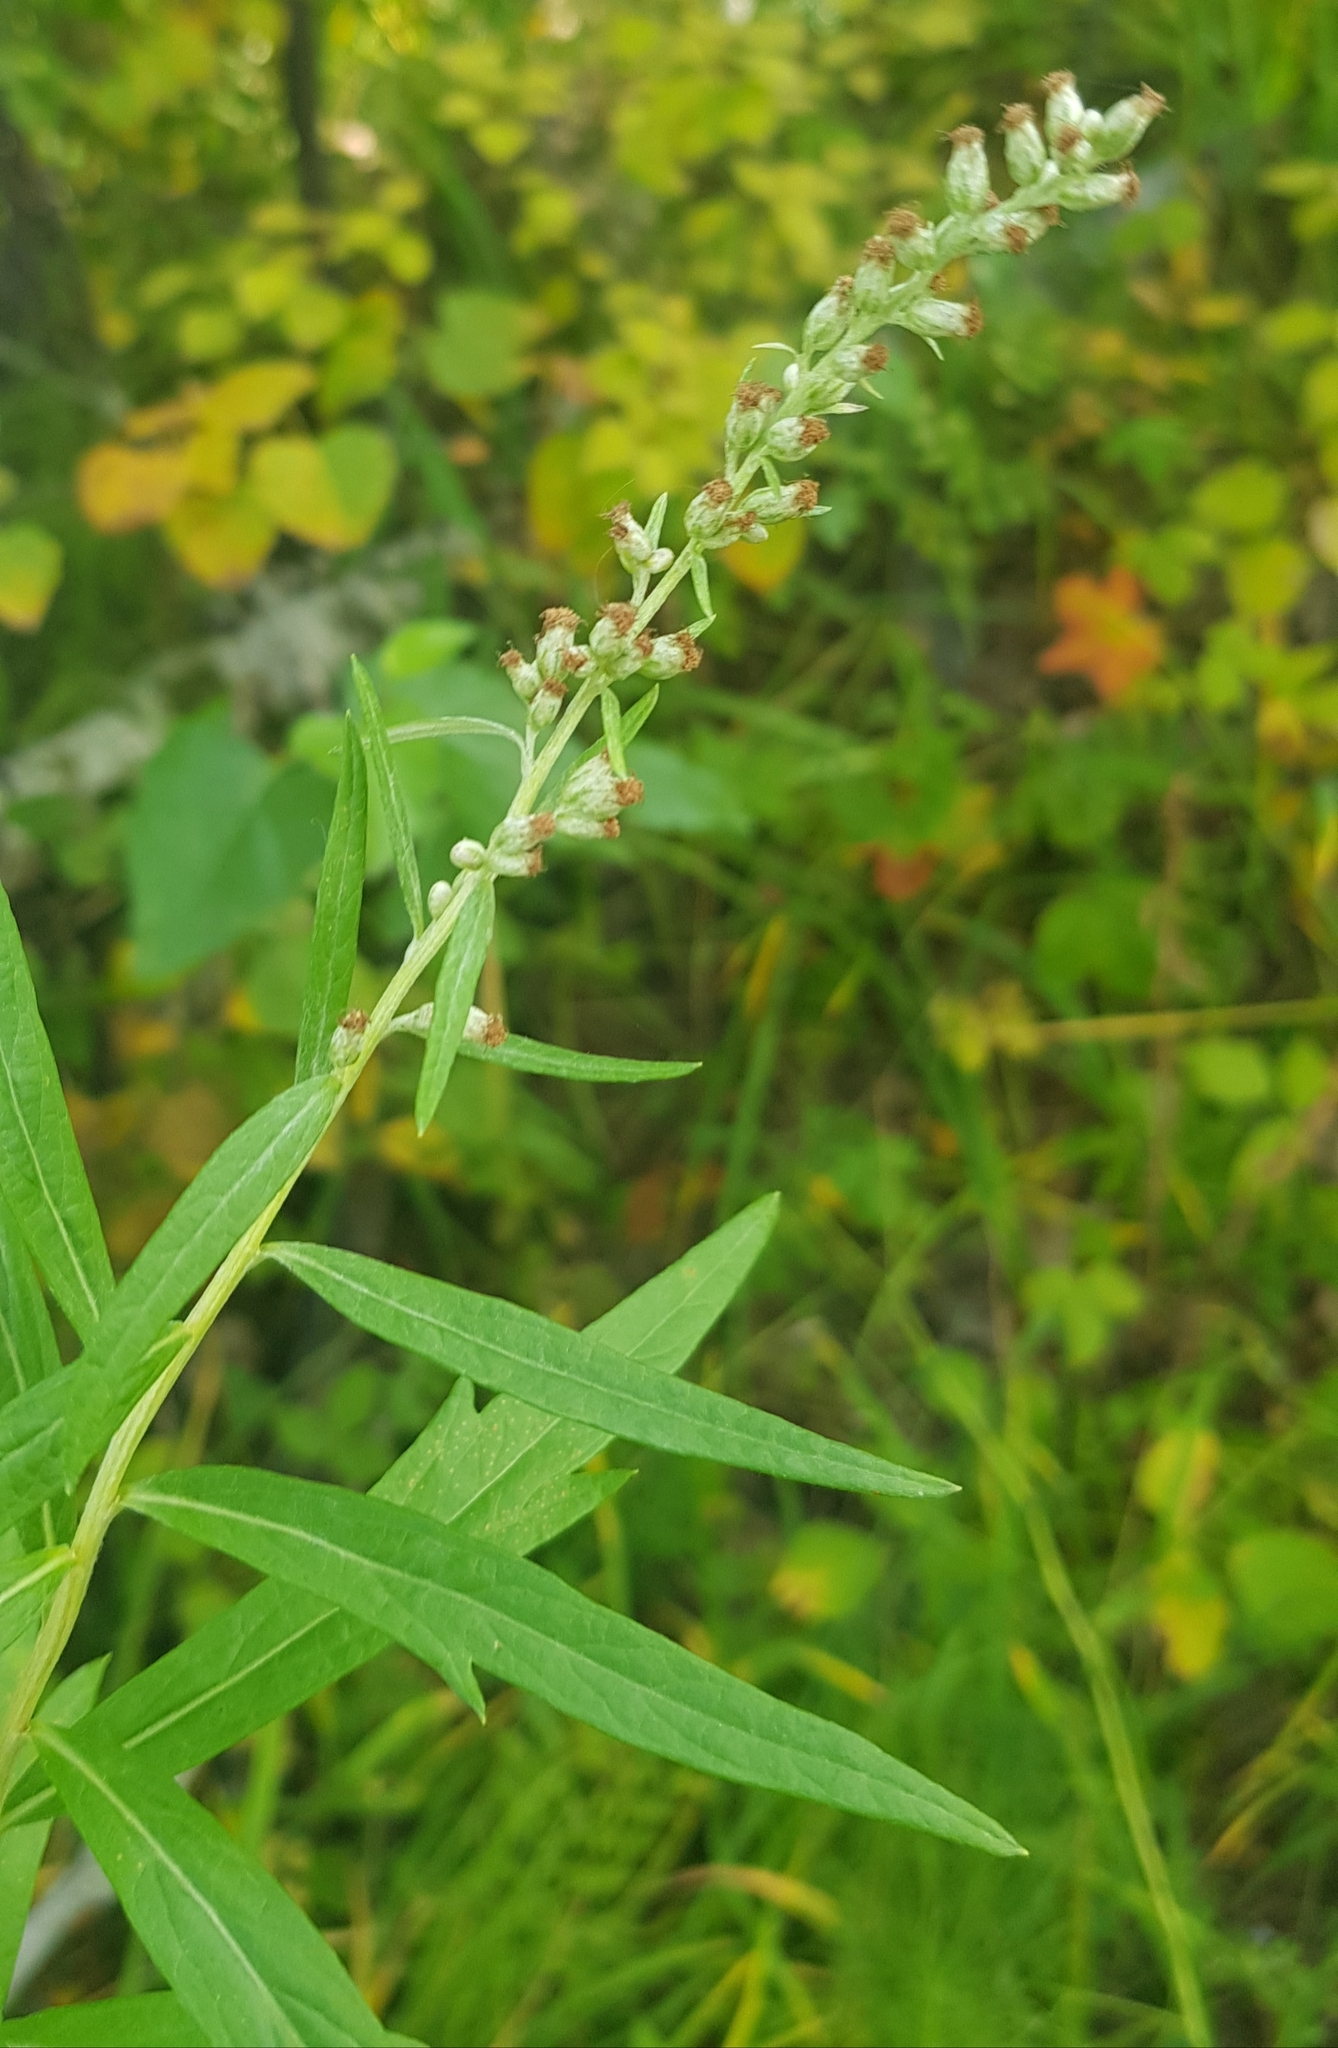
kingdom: Plantae
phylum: Tracheophyta
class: Magnoliopsida
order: Asterales
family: Asteraceae
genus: Artemisia
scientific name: Artemisia integrifolia
